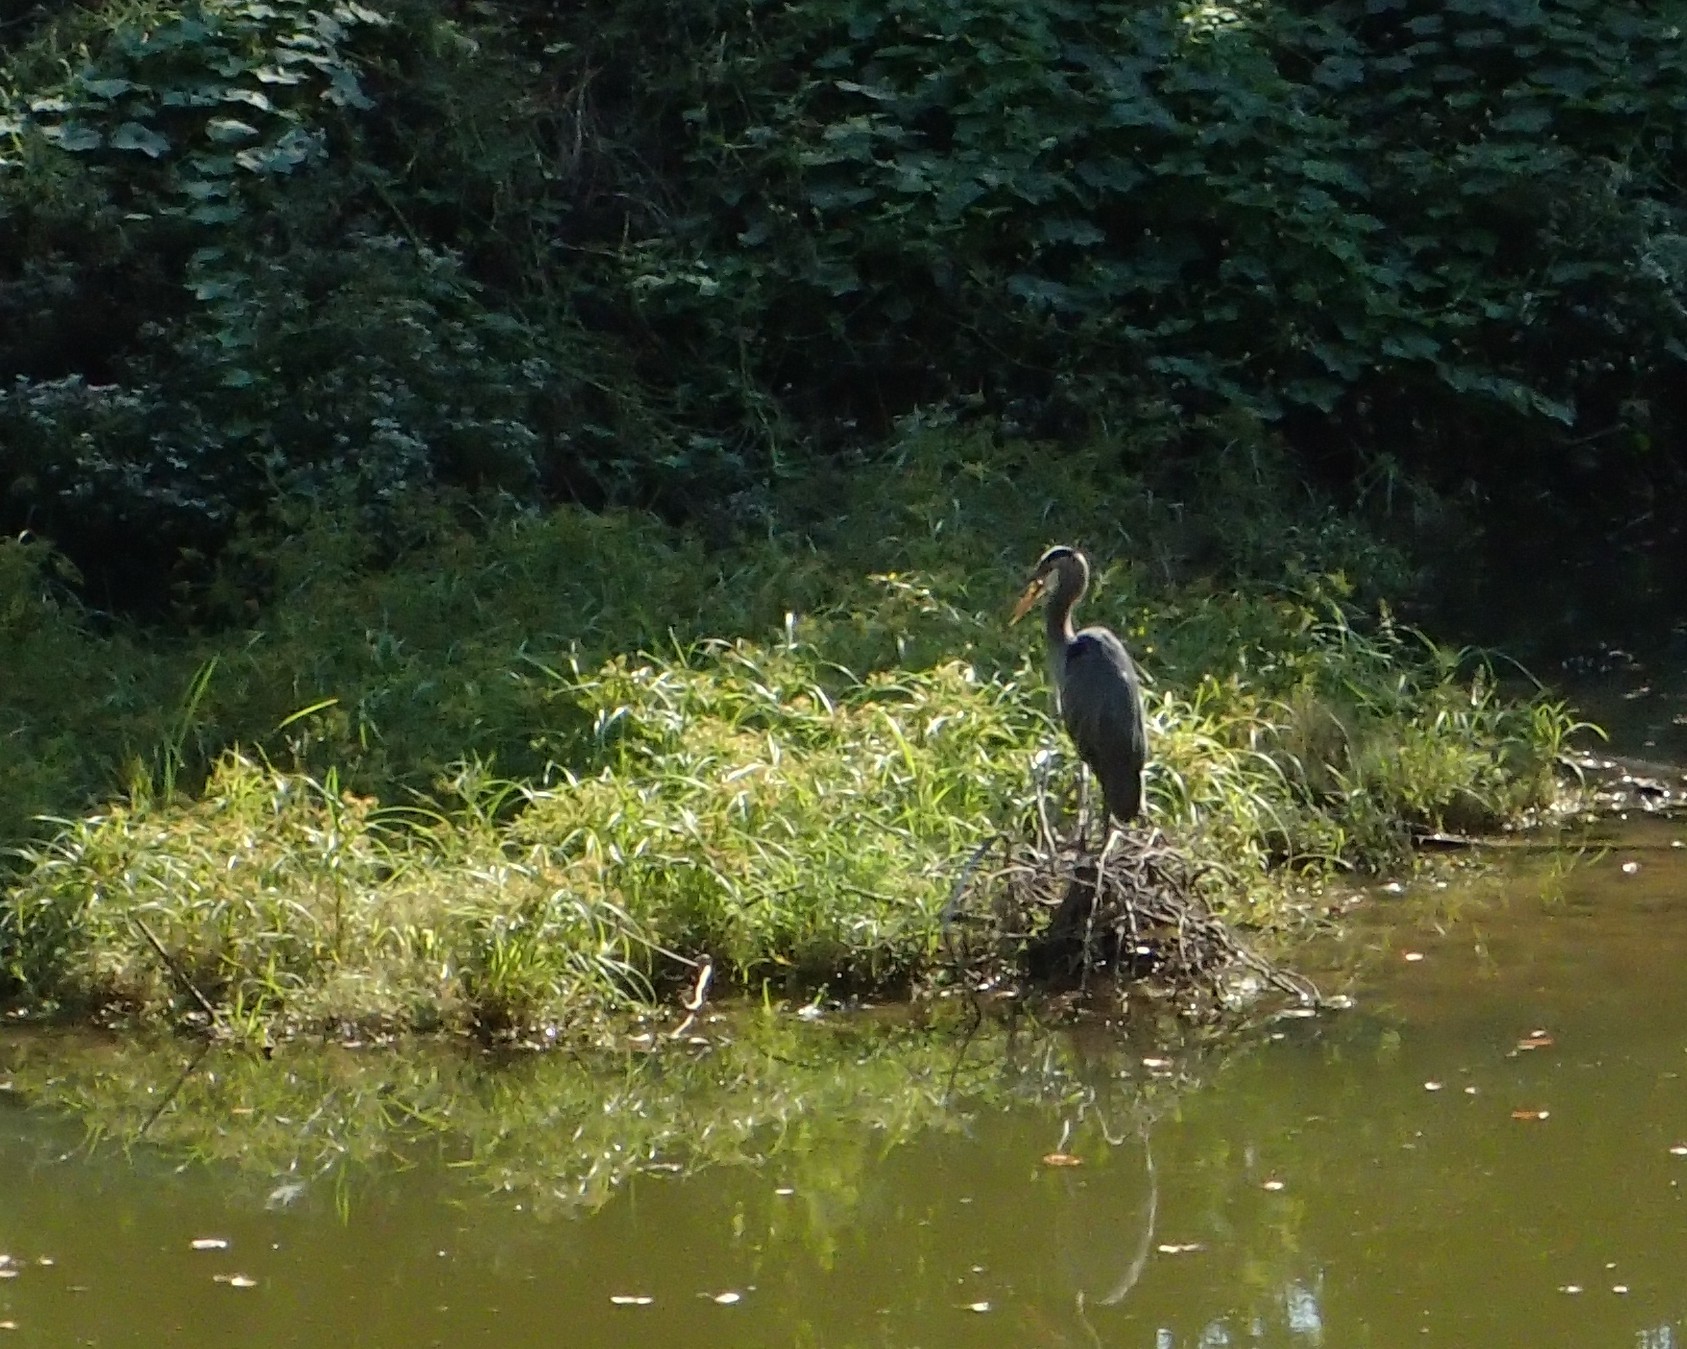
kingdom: Animalia
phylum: Chordata
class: Aves
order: Pelecaniformes
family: Ardeidae
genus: Ardea
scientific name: Ardea herodias
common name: Great blue heron
